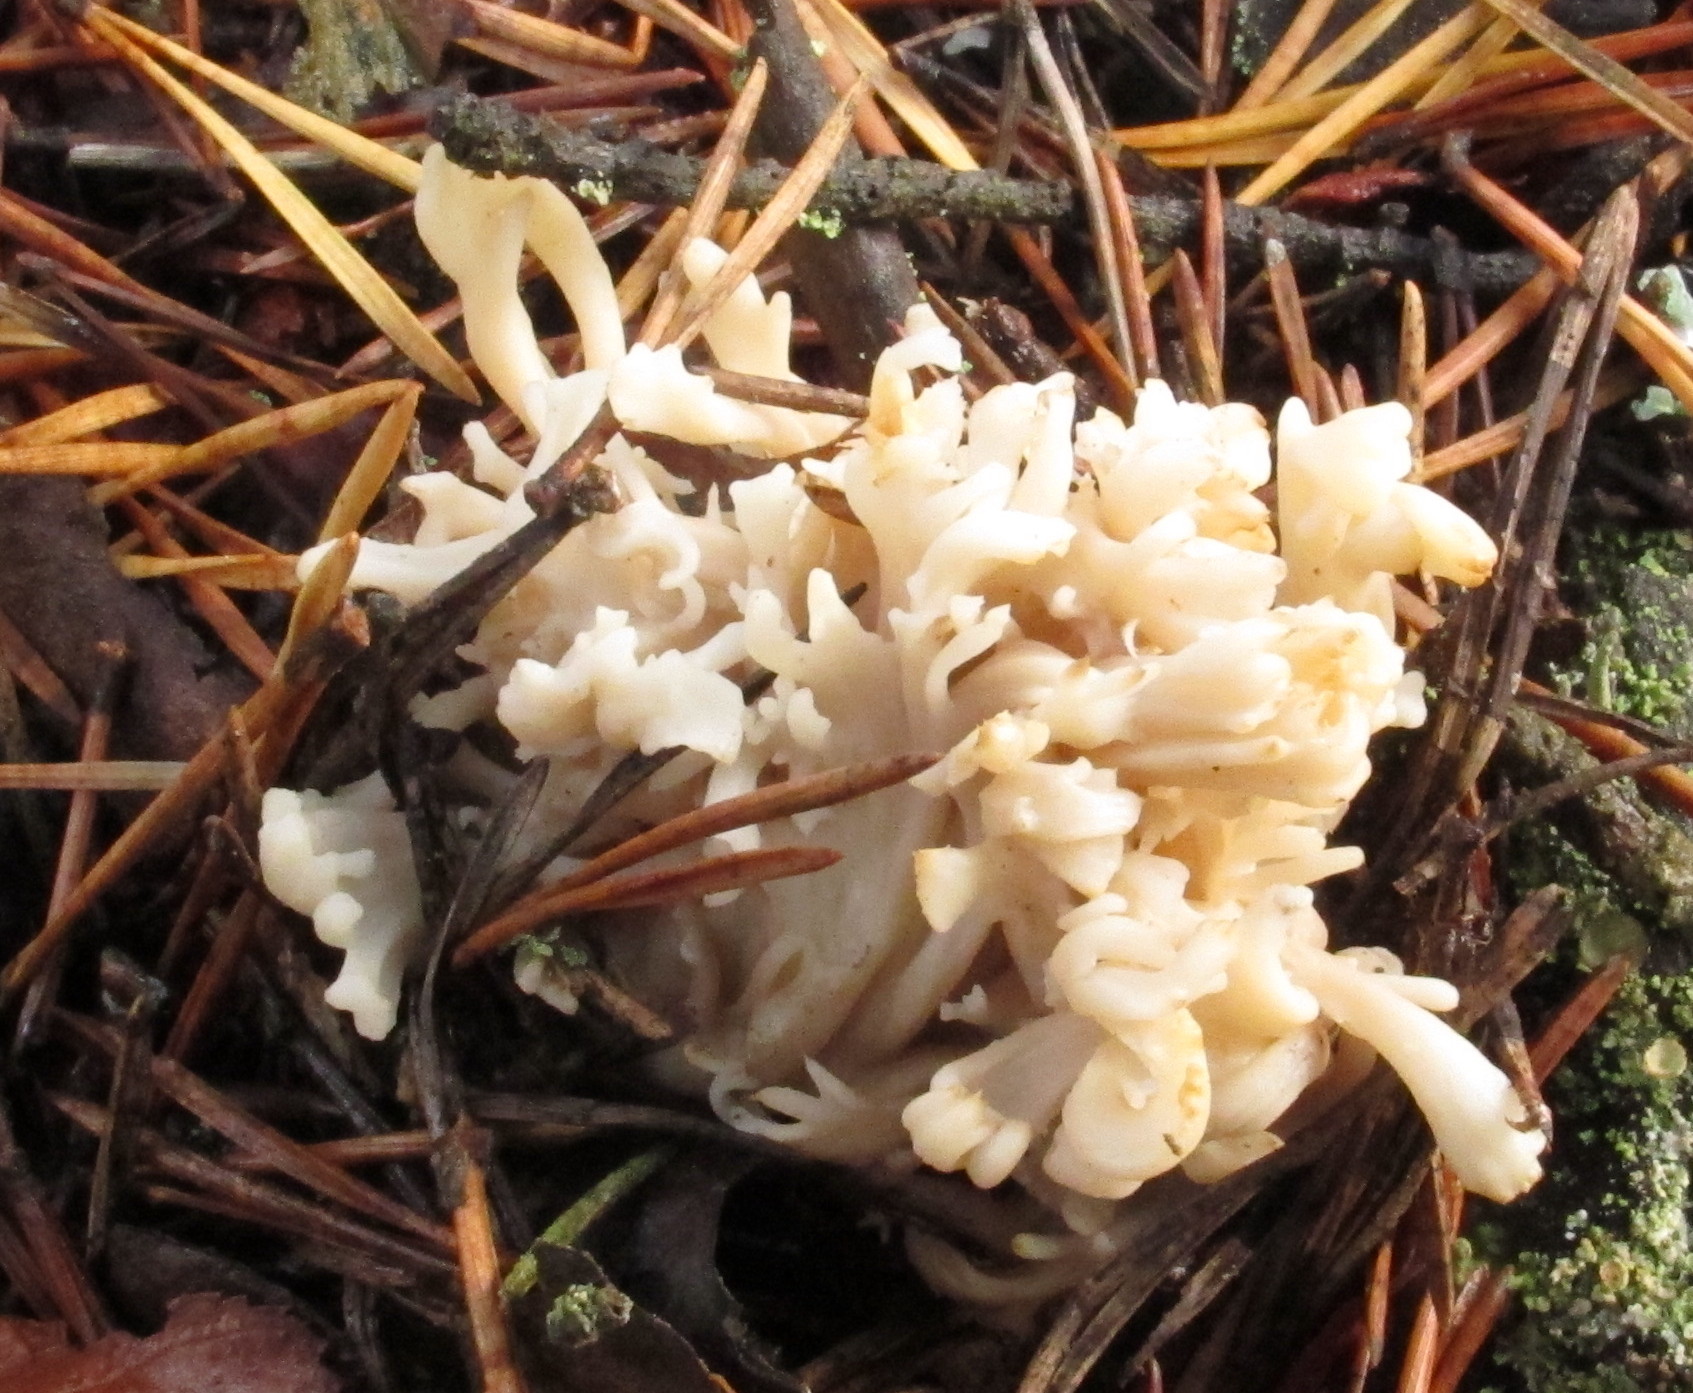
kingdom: Fungi
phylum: Basidiomycota
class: Agaricomycetes
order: Cantharellales
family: Hydnaceae
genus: Clavulina
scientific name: Clavulina coralloides
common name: Crested coral
